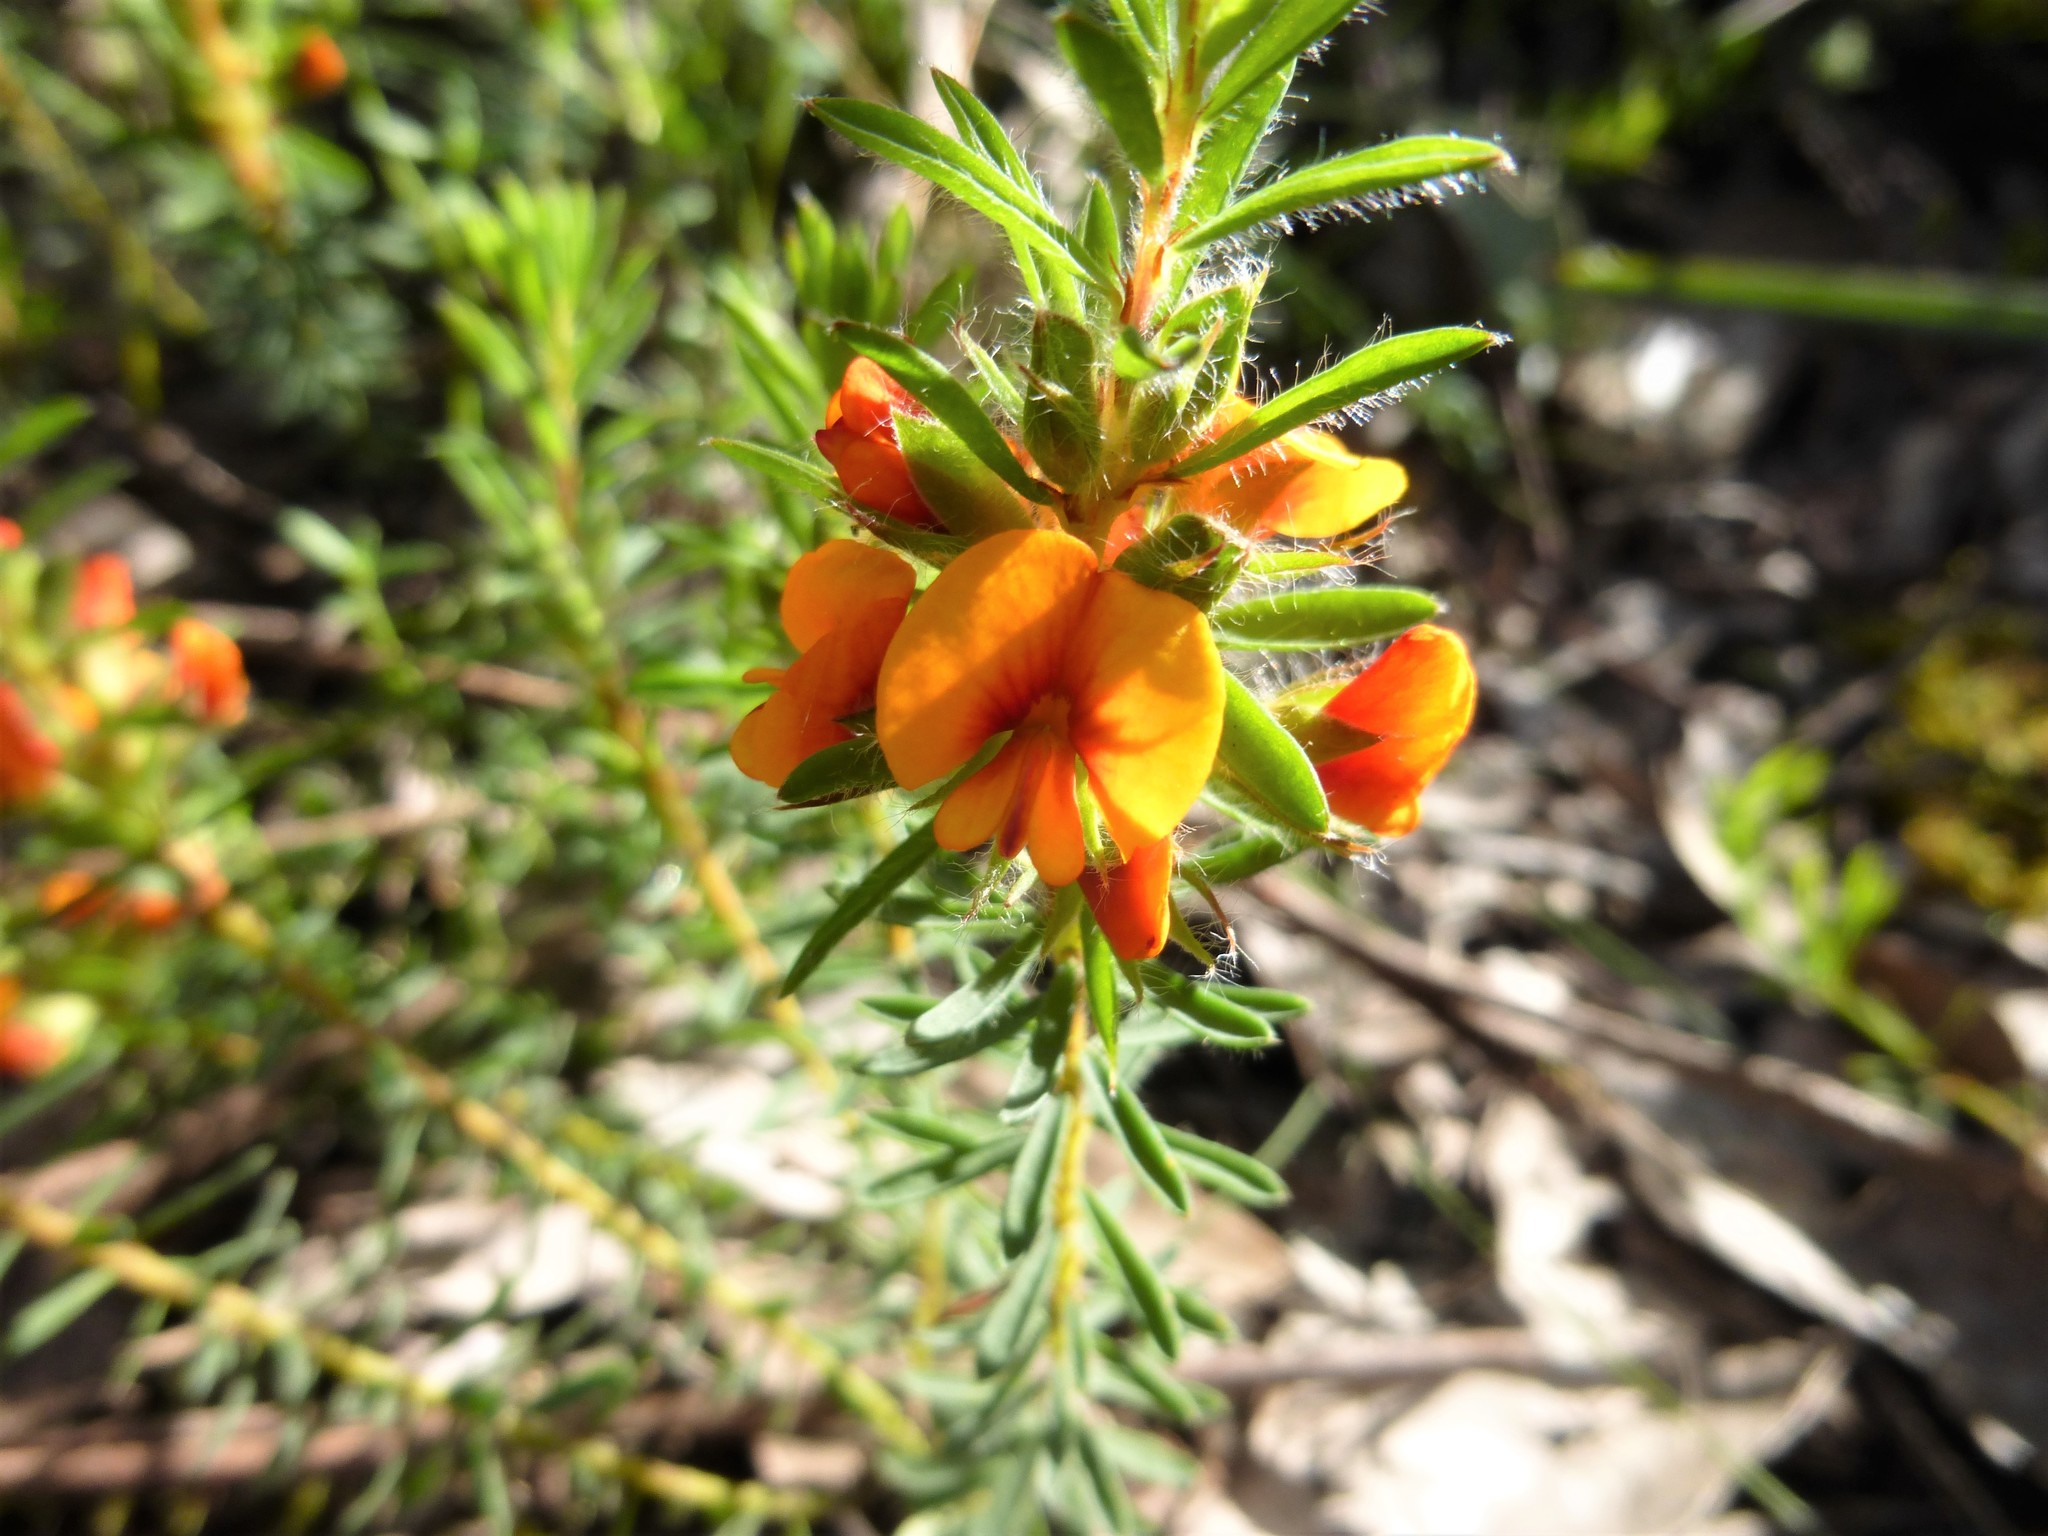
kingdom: Plantae
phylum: Tracheophyta
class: Magnoliopsida
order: Fabales
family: Fabaceae
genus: Pultenaea
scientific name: Pultenaea humilis
